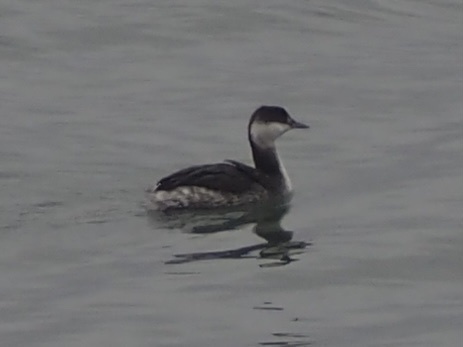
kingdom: Animalia
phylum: Chordata
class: Aves
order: Podicipediformes
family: Podicipedidae
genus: Podiceps
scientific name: Podiceps auritus
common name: Horned grebe
